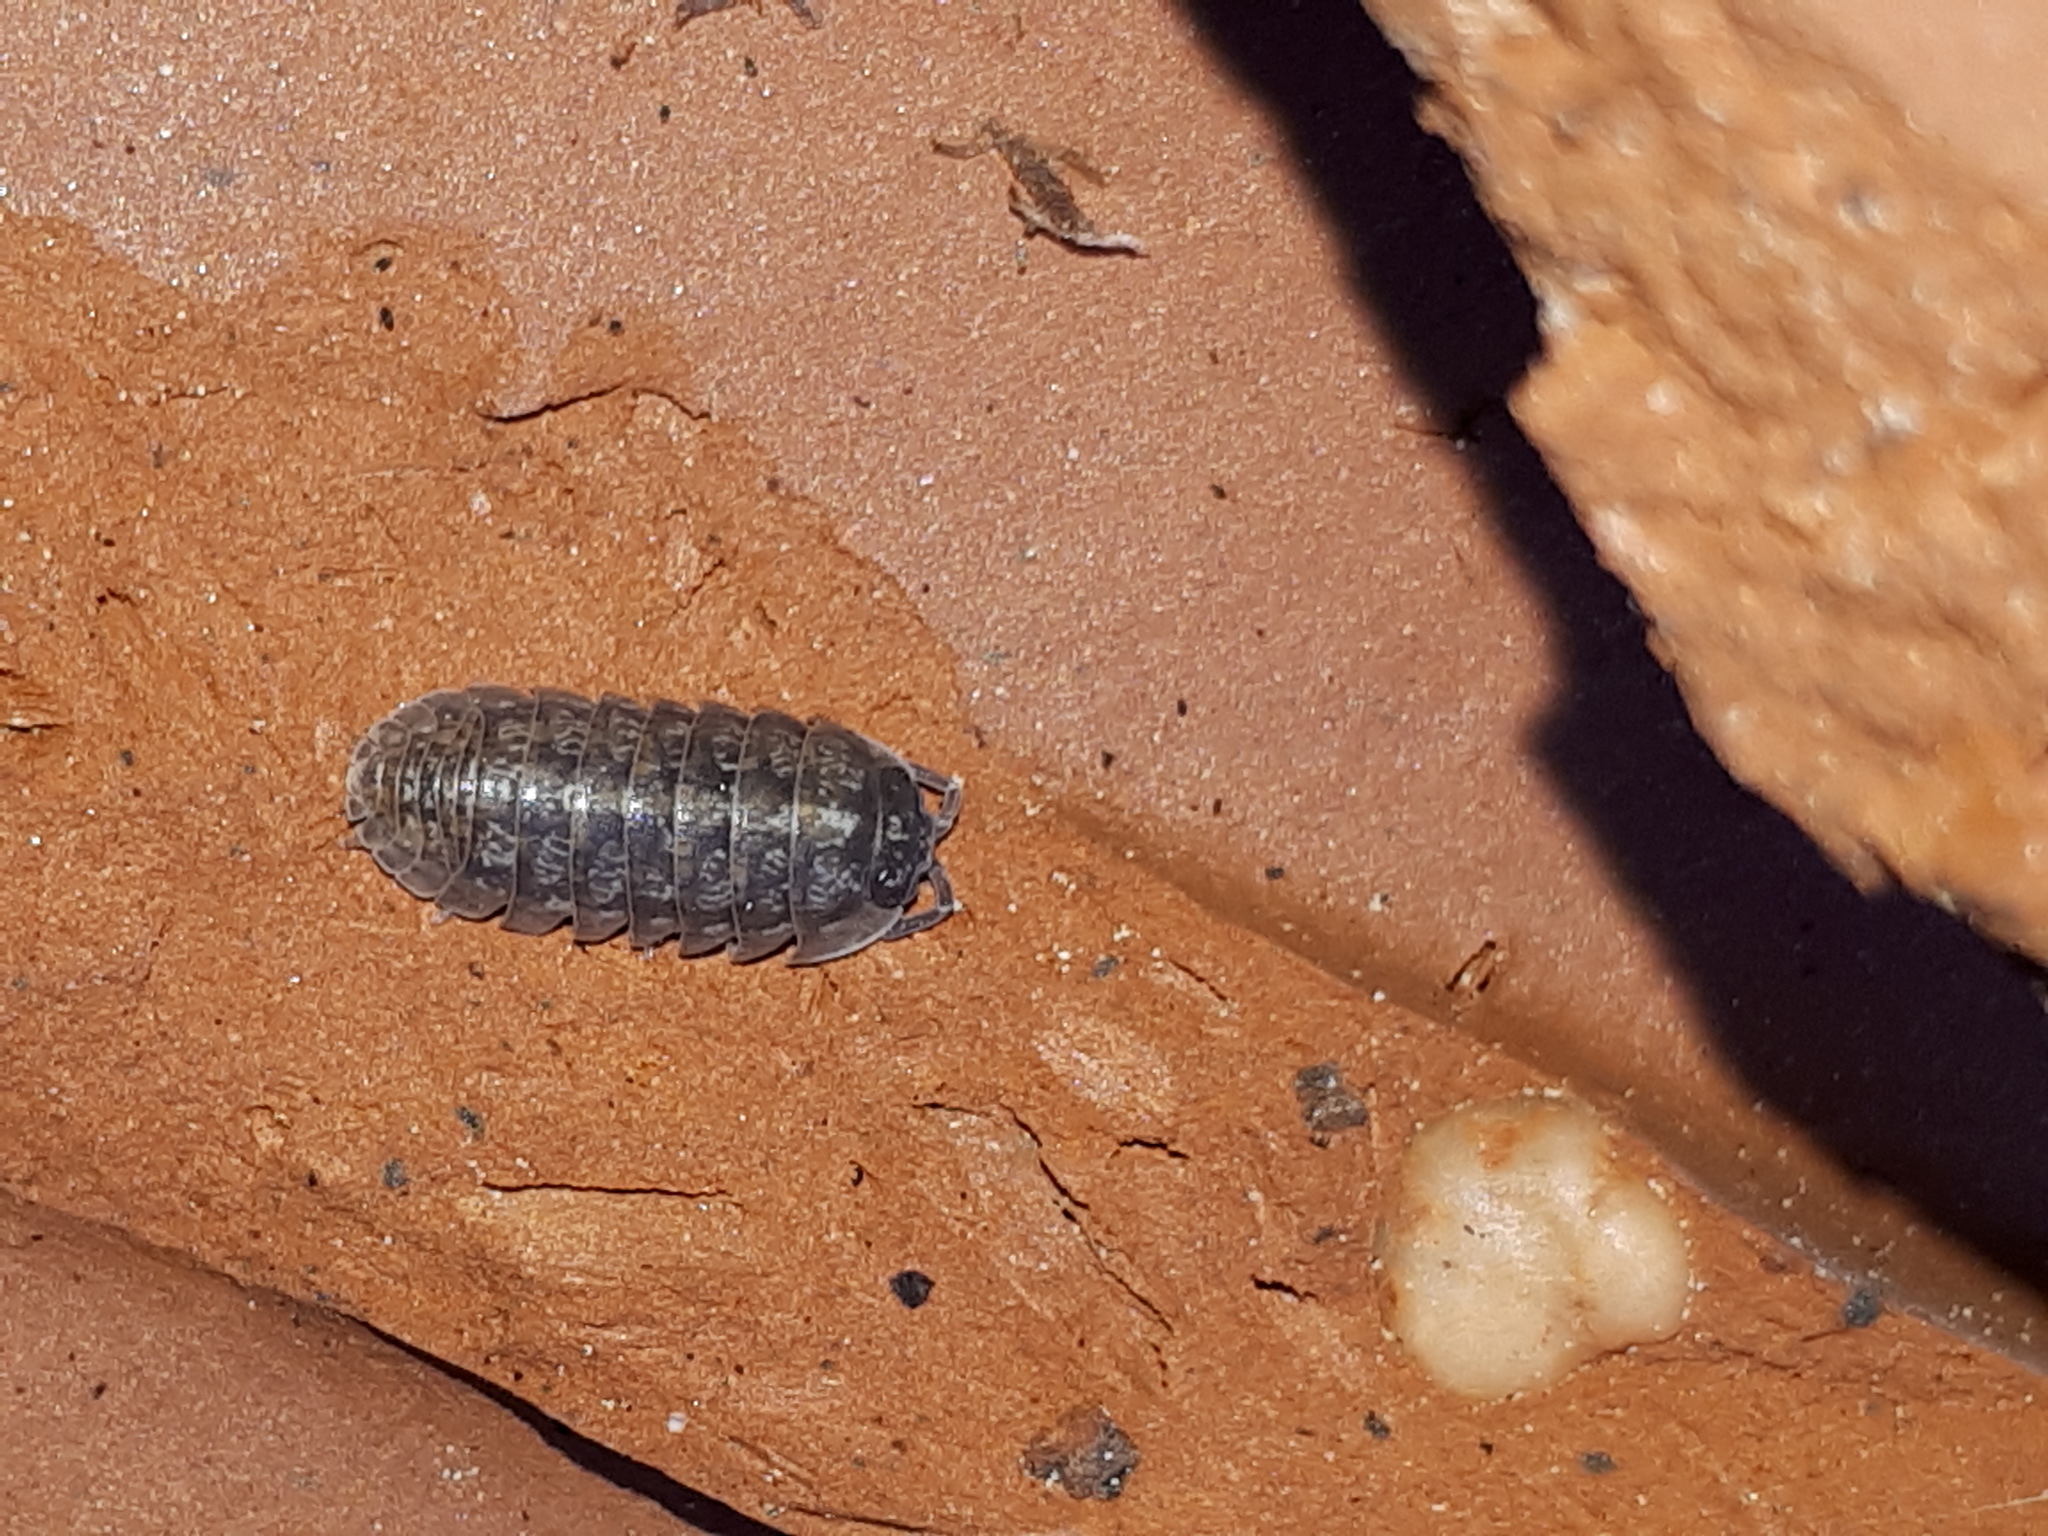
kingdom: Animalia
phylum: Arthropoda
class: Malacostraca
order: Isopoda
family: Armadillidiidae
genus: Armadillidium
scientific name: Armadillidium opacum
